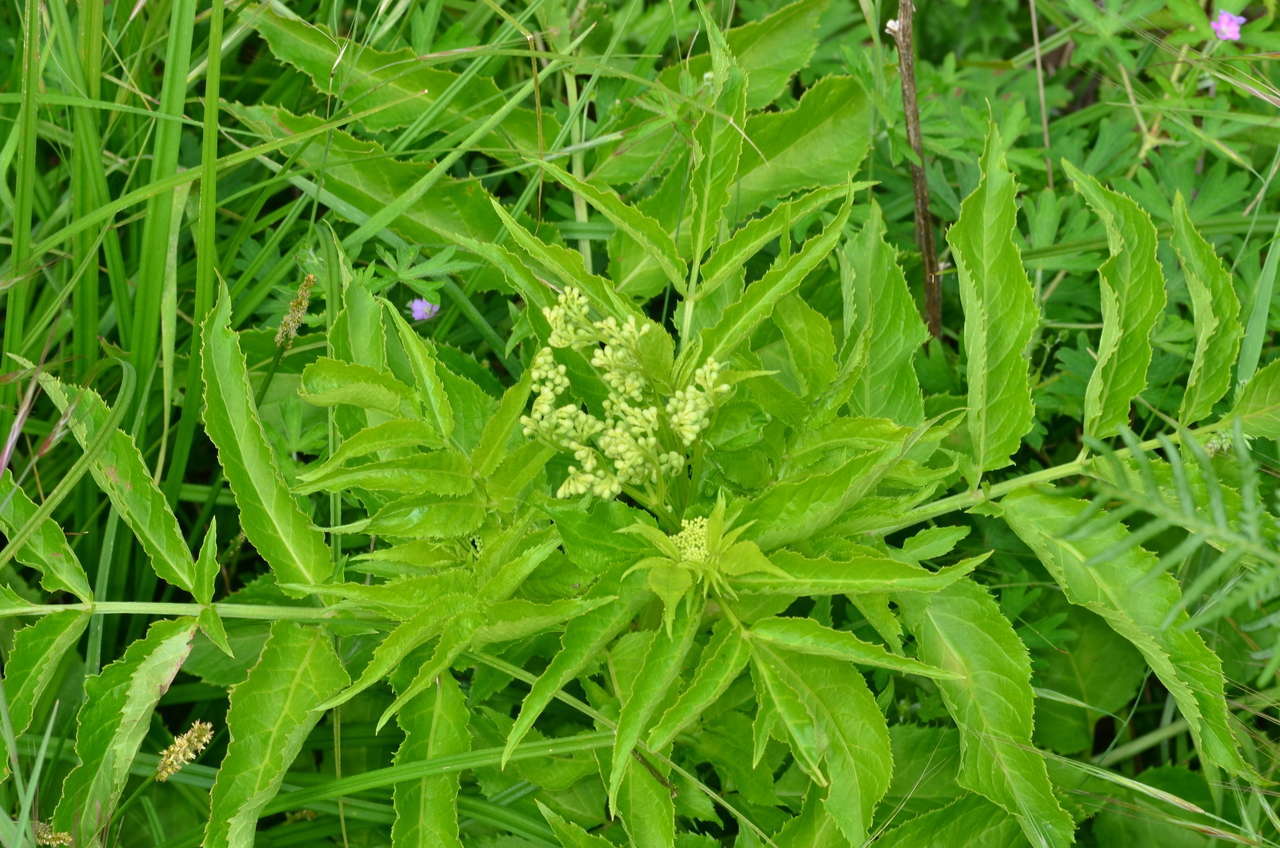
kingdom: Plantae
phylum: Tracheophyta
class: Magnoliopsida
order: Dipsacales
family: Viburnaceae
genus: Sambucus
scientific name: Sambucus gaudichaudiana
